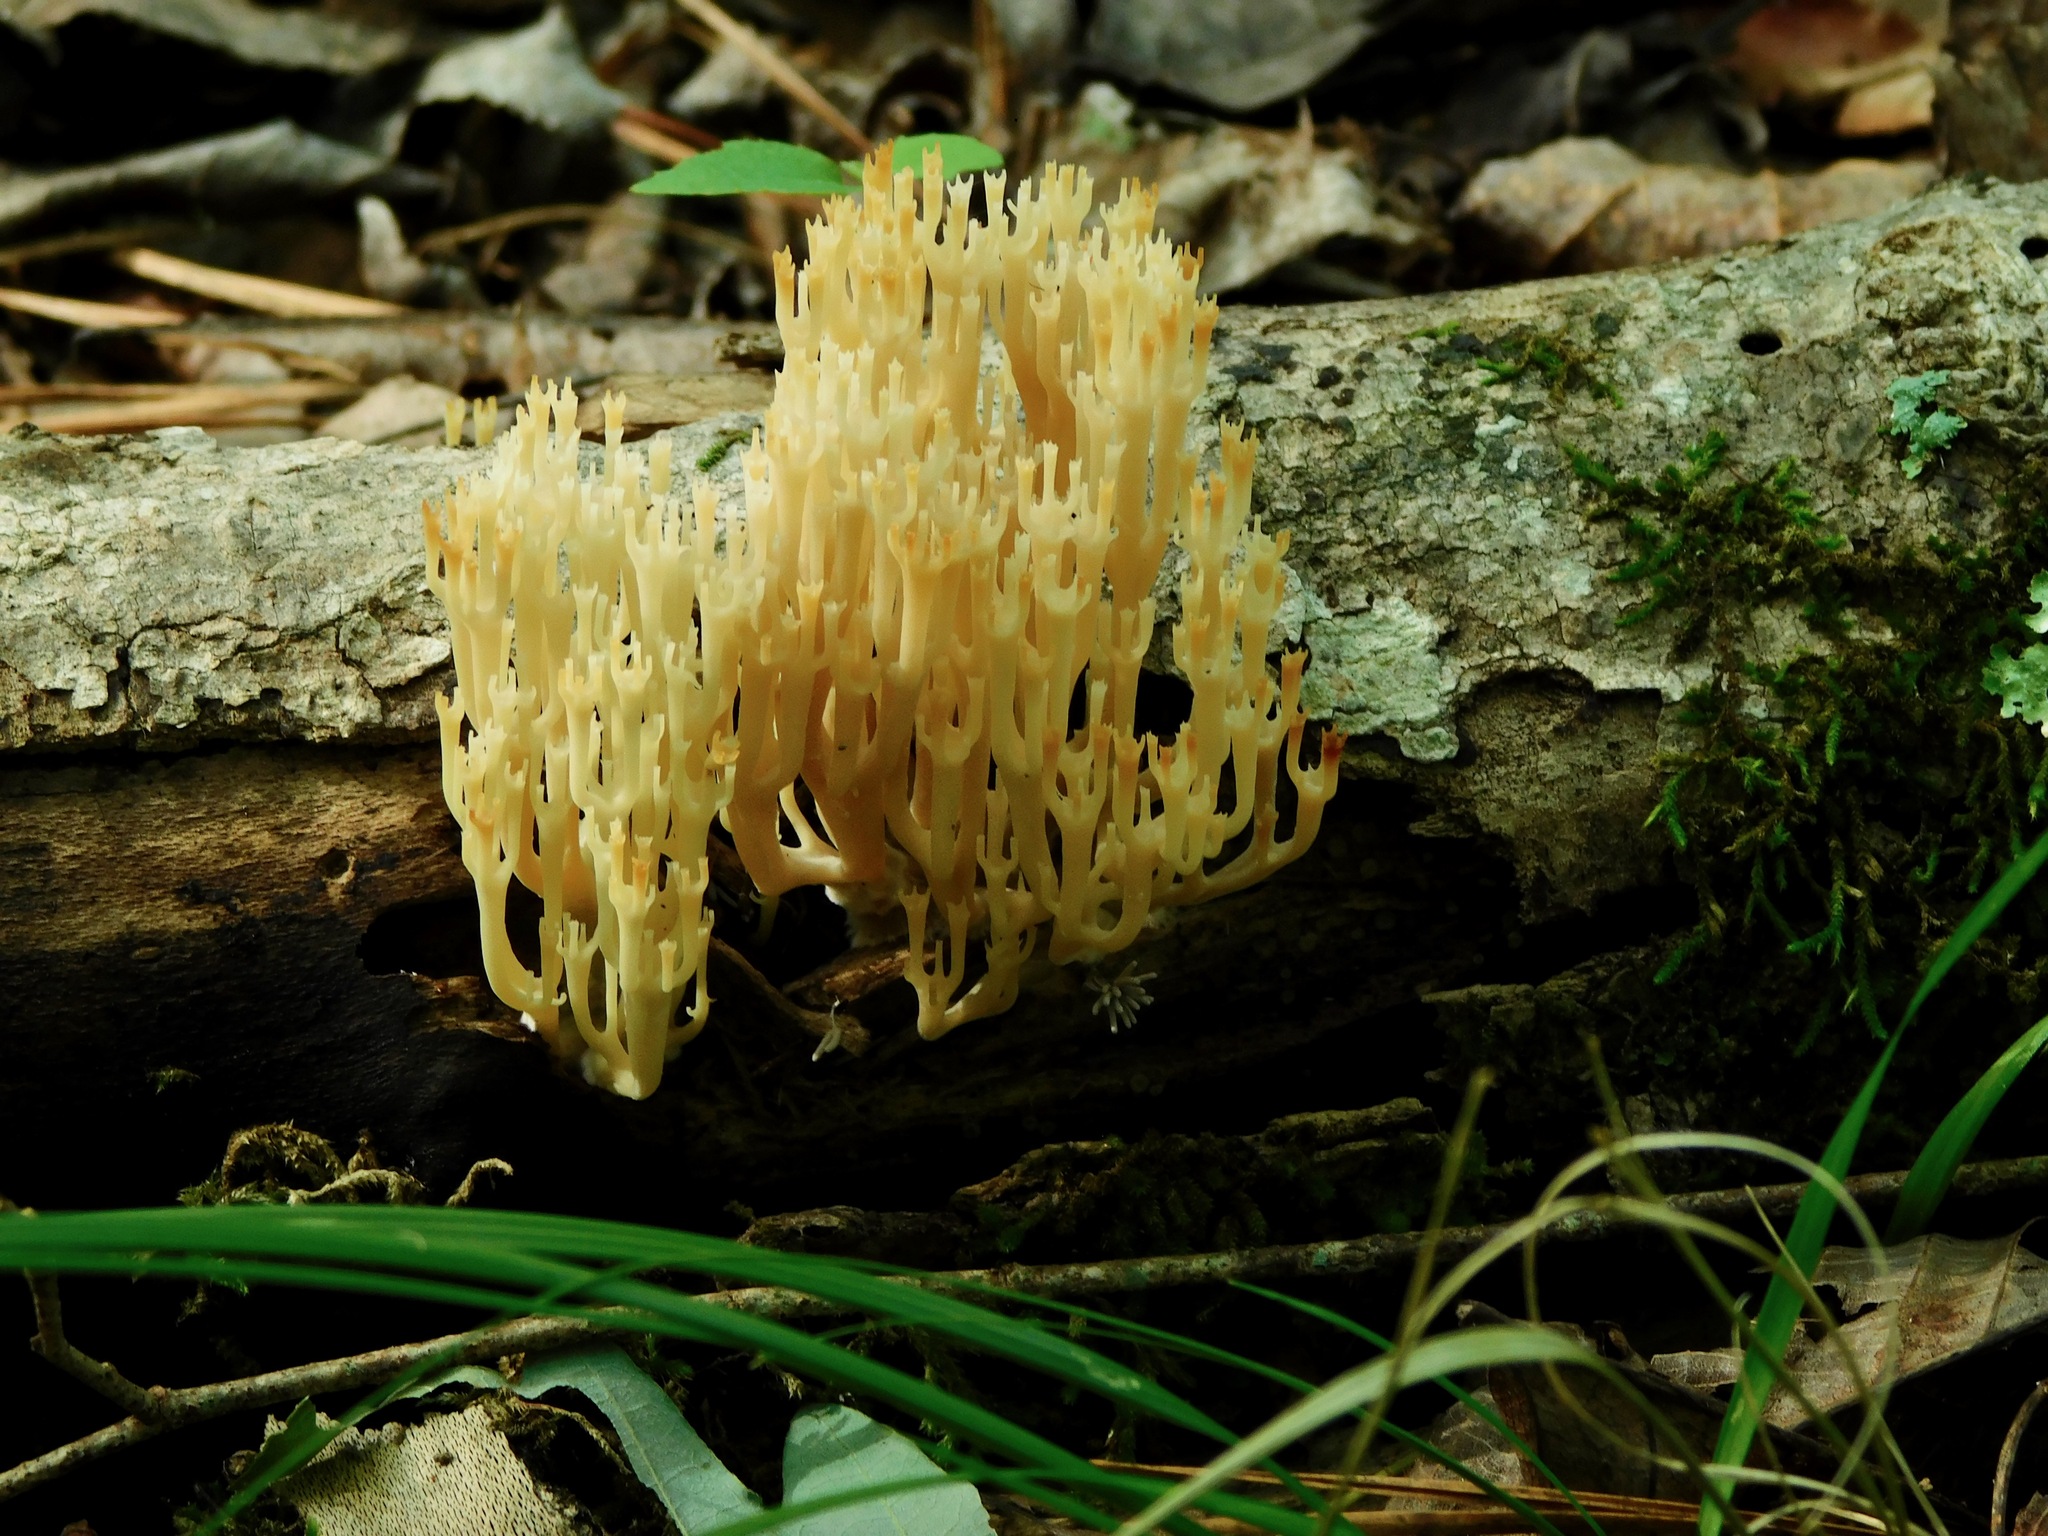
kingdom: Fungi
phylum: Basidiomycota
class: Agaricomycetes
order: Russulales
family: Auriscalpiaceae
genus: Artomyces
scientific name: Artomyces pyxidatus
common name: Crown-tipped coral fungus
